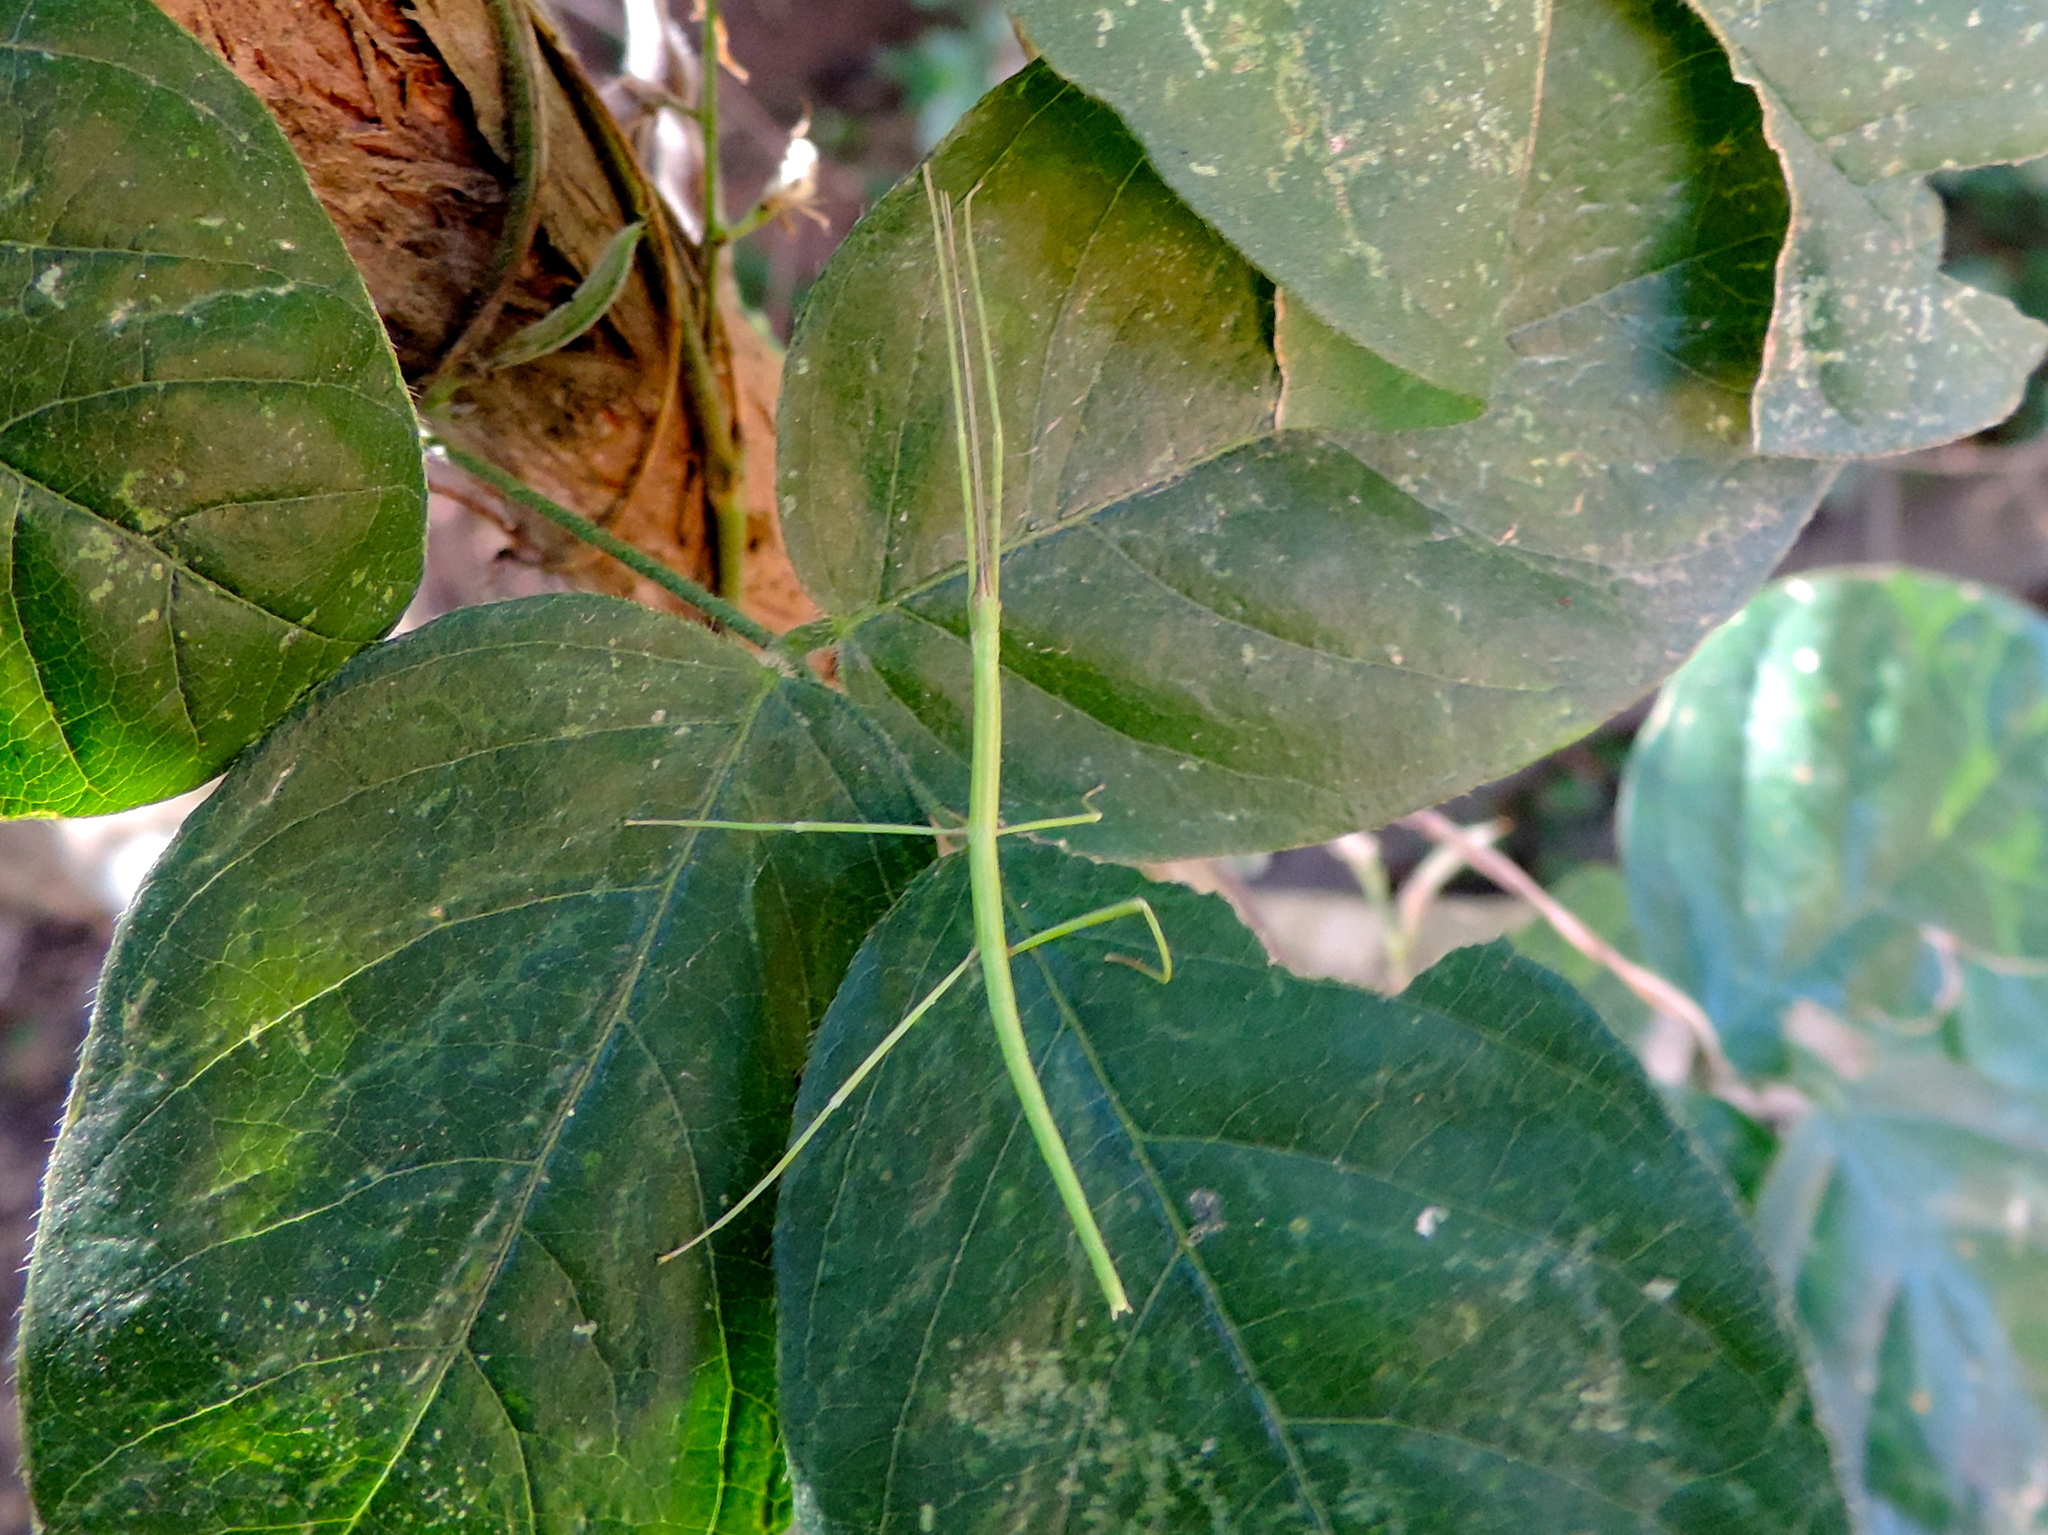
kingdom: Animalia
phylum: Arthropoda
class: Insecta
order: Phasmida
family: Diapheromeridae
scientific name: Diapheromeridae
